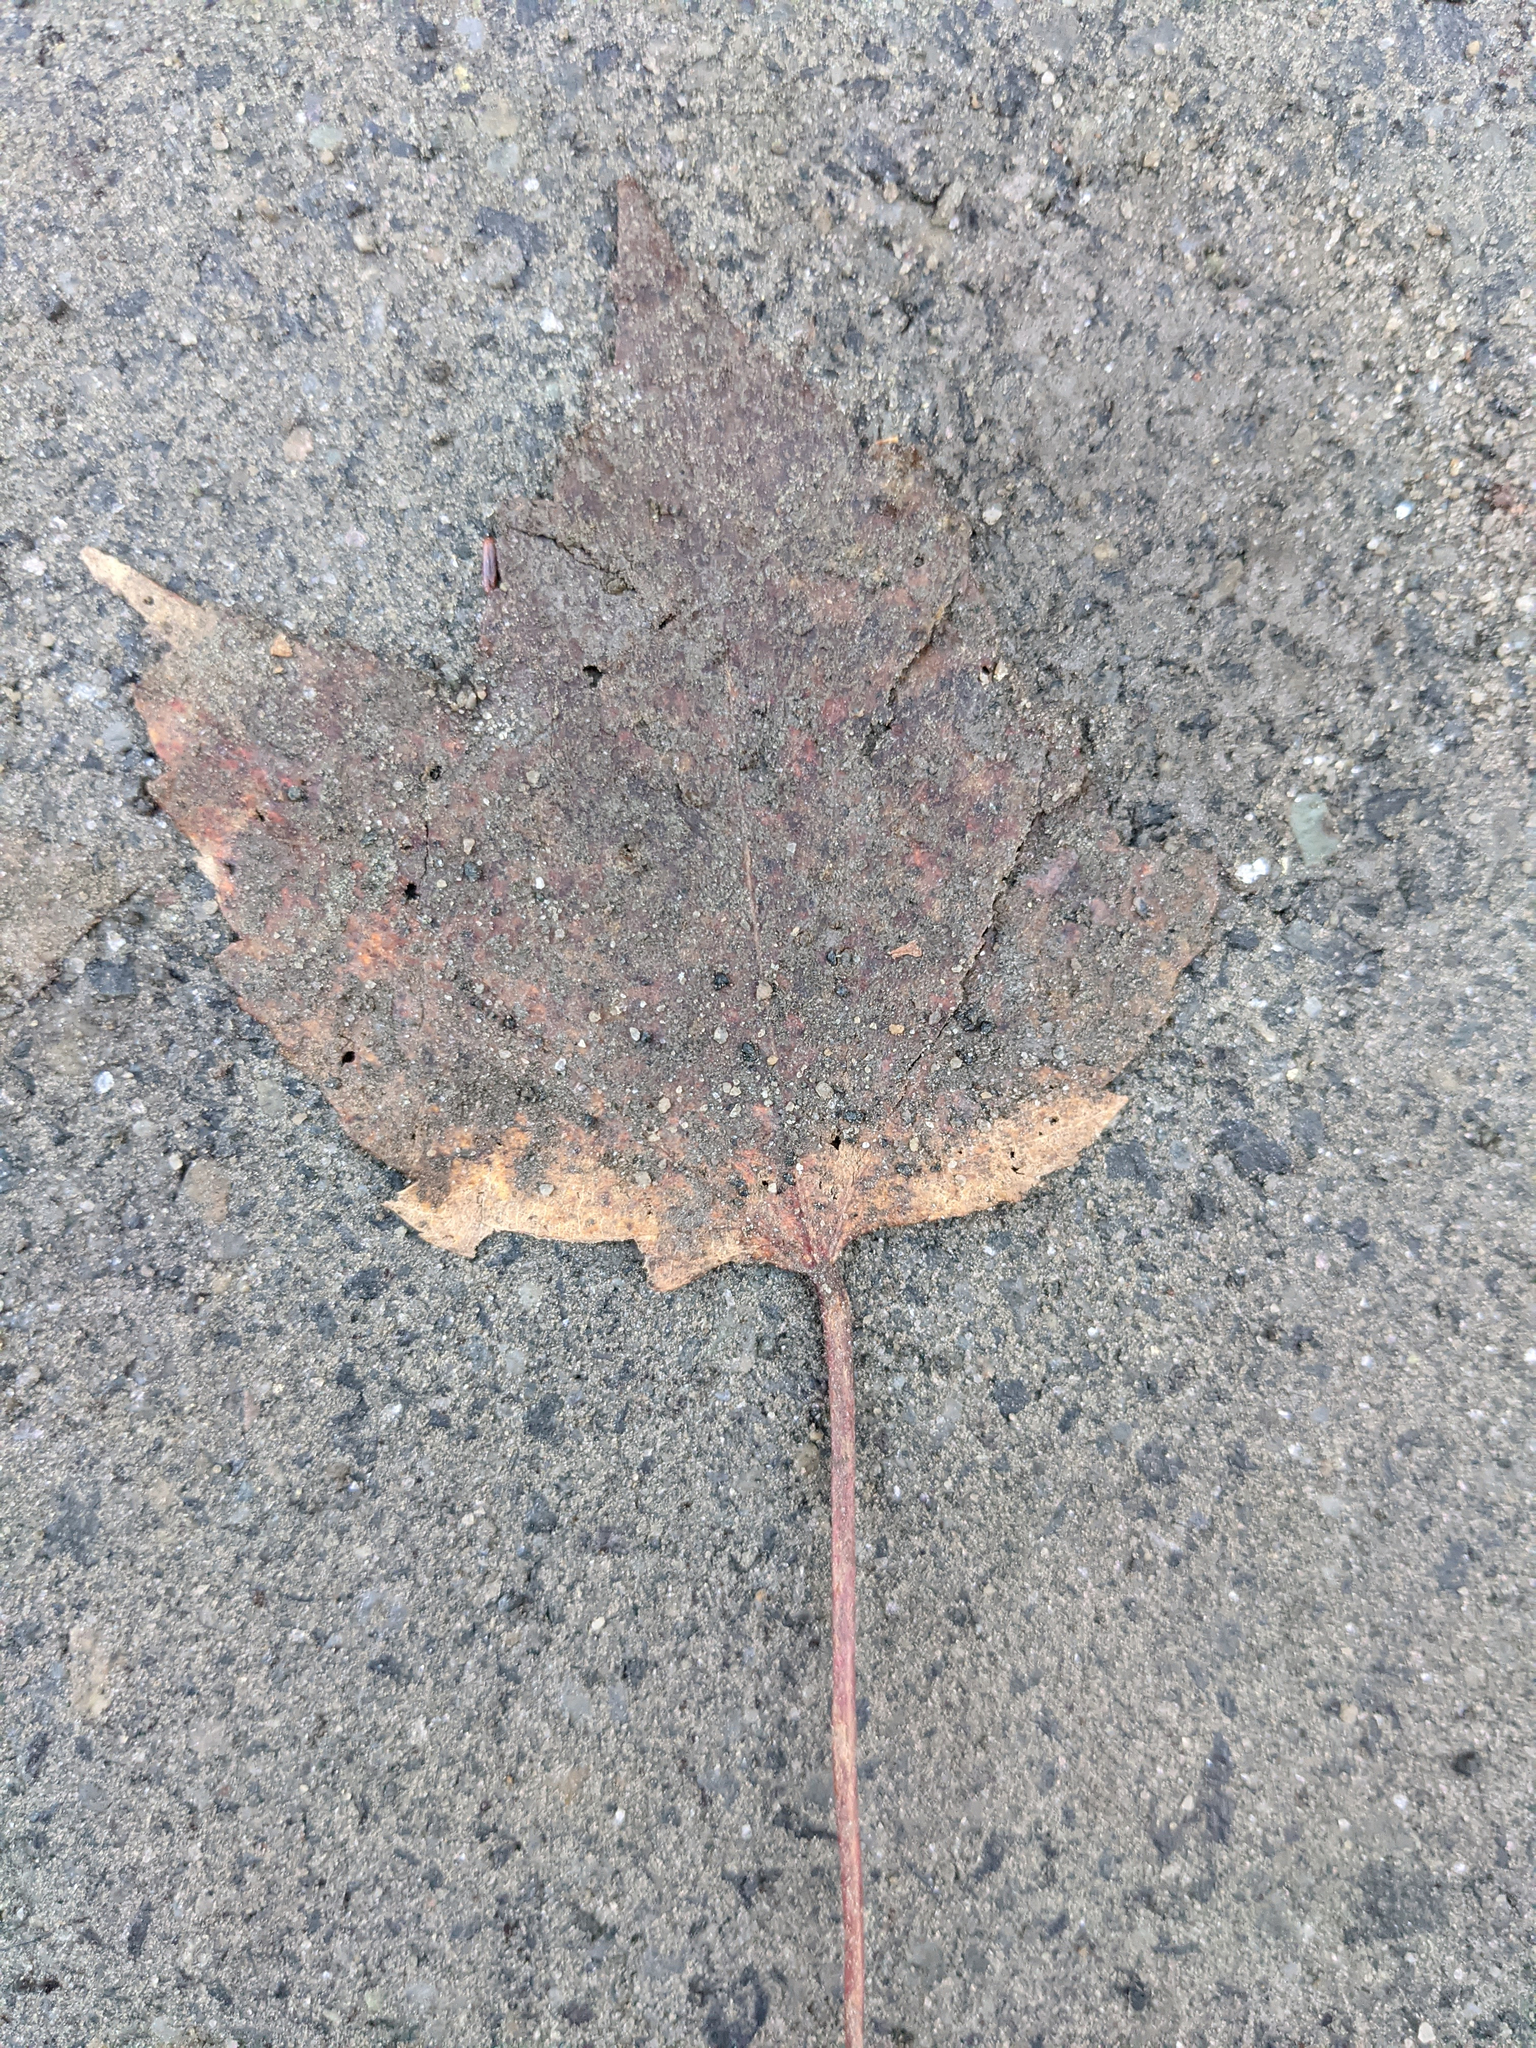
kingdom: Plantae
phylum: Tracheophyta
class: Magnoliopsida
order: Sapindales
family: Sapindaceae
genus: Acer
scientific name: Acer rubrum
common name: Red maple
